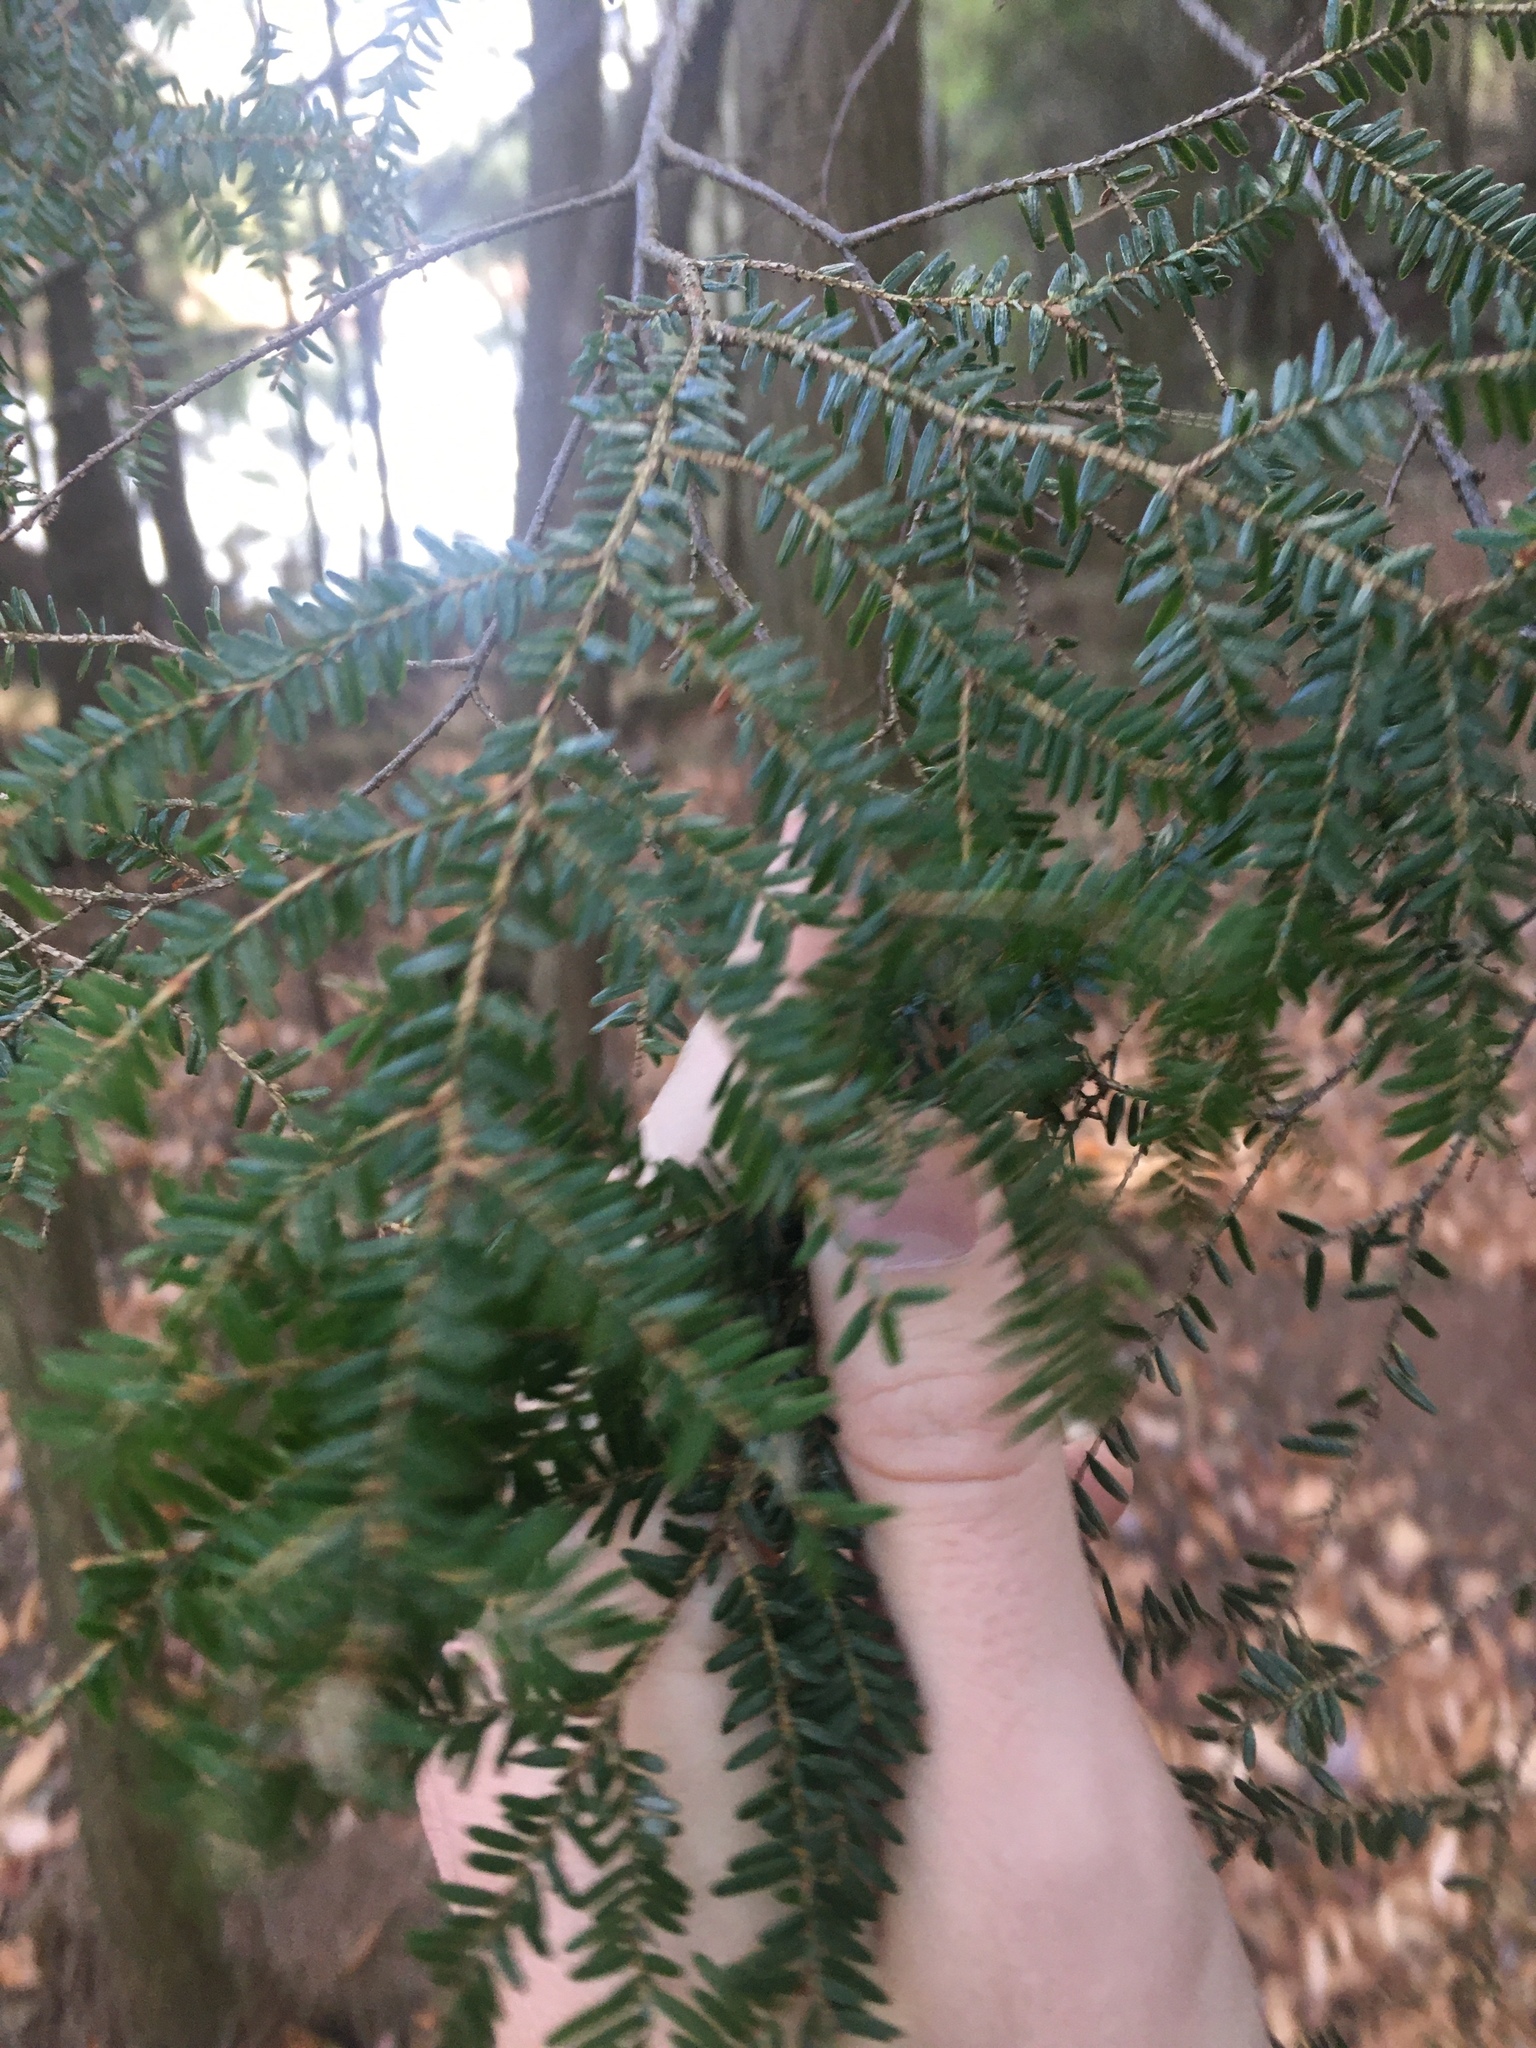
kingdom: Plantae
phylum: Tracheophyta
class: Pinopsida
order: Pinales
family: Pinaceae
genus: Tsuga
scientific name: Tsuga canadensis
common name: Eastern hemlock
